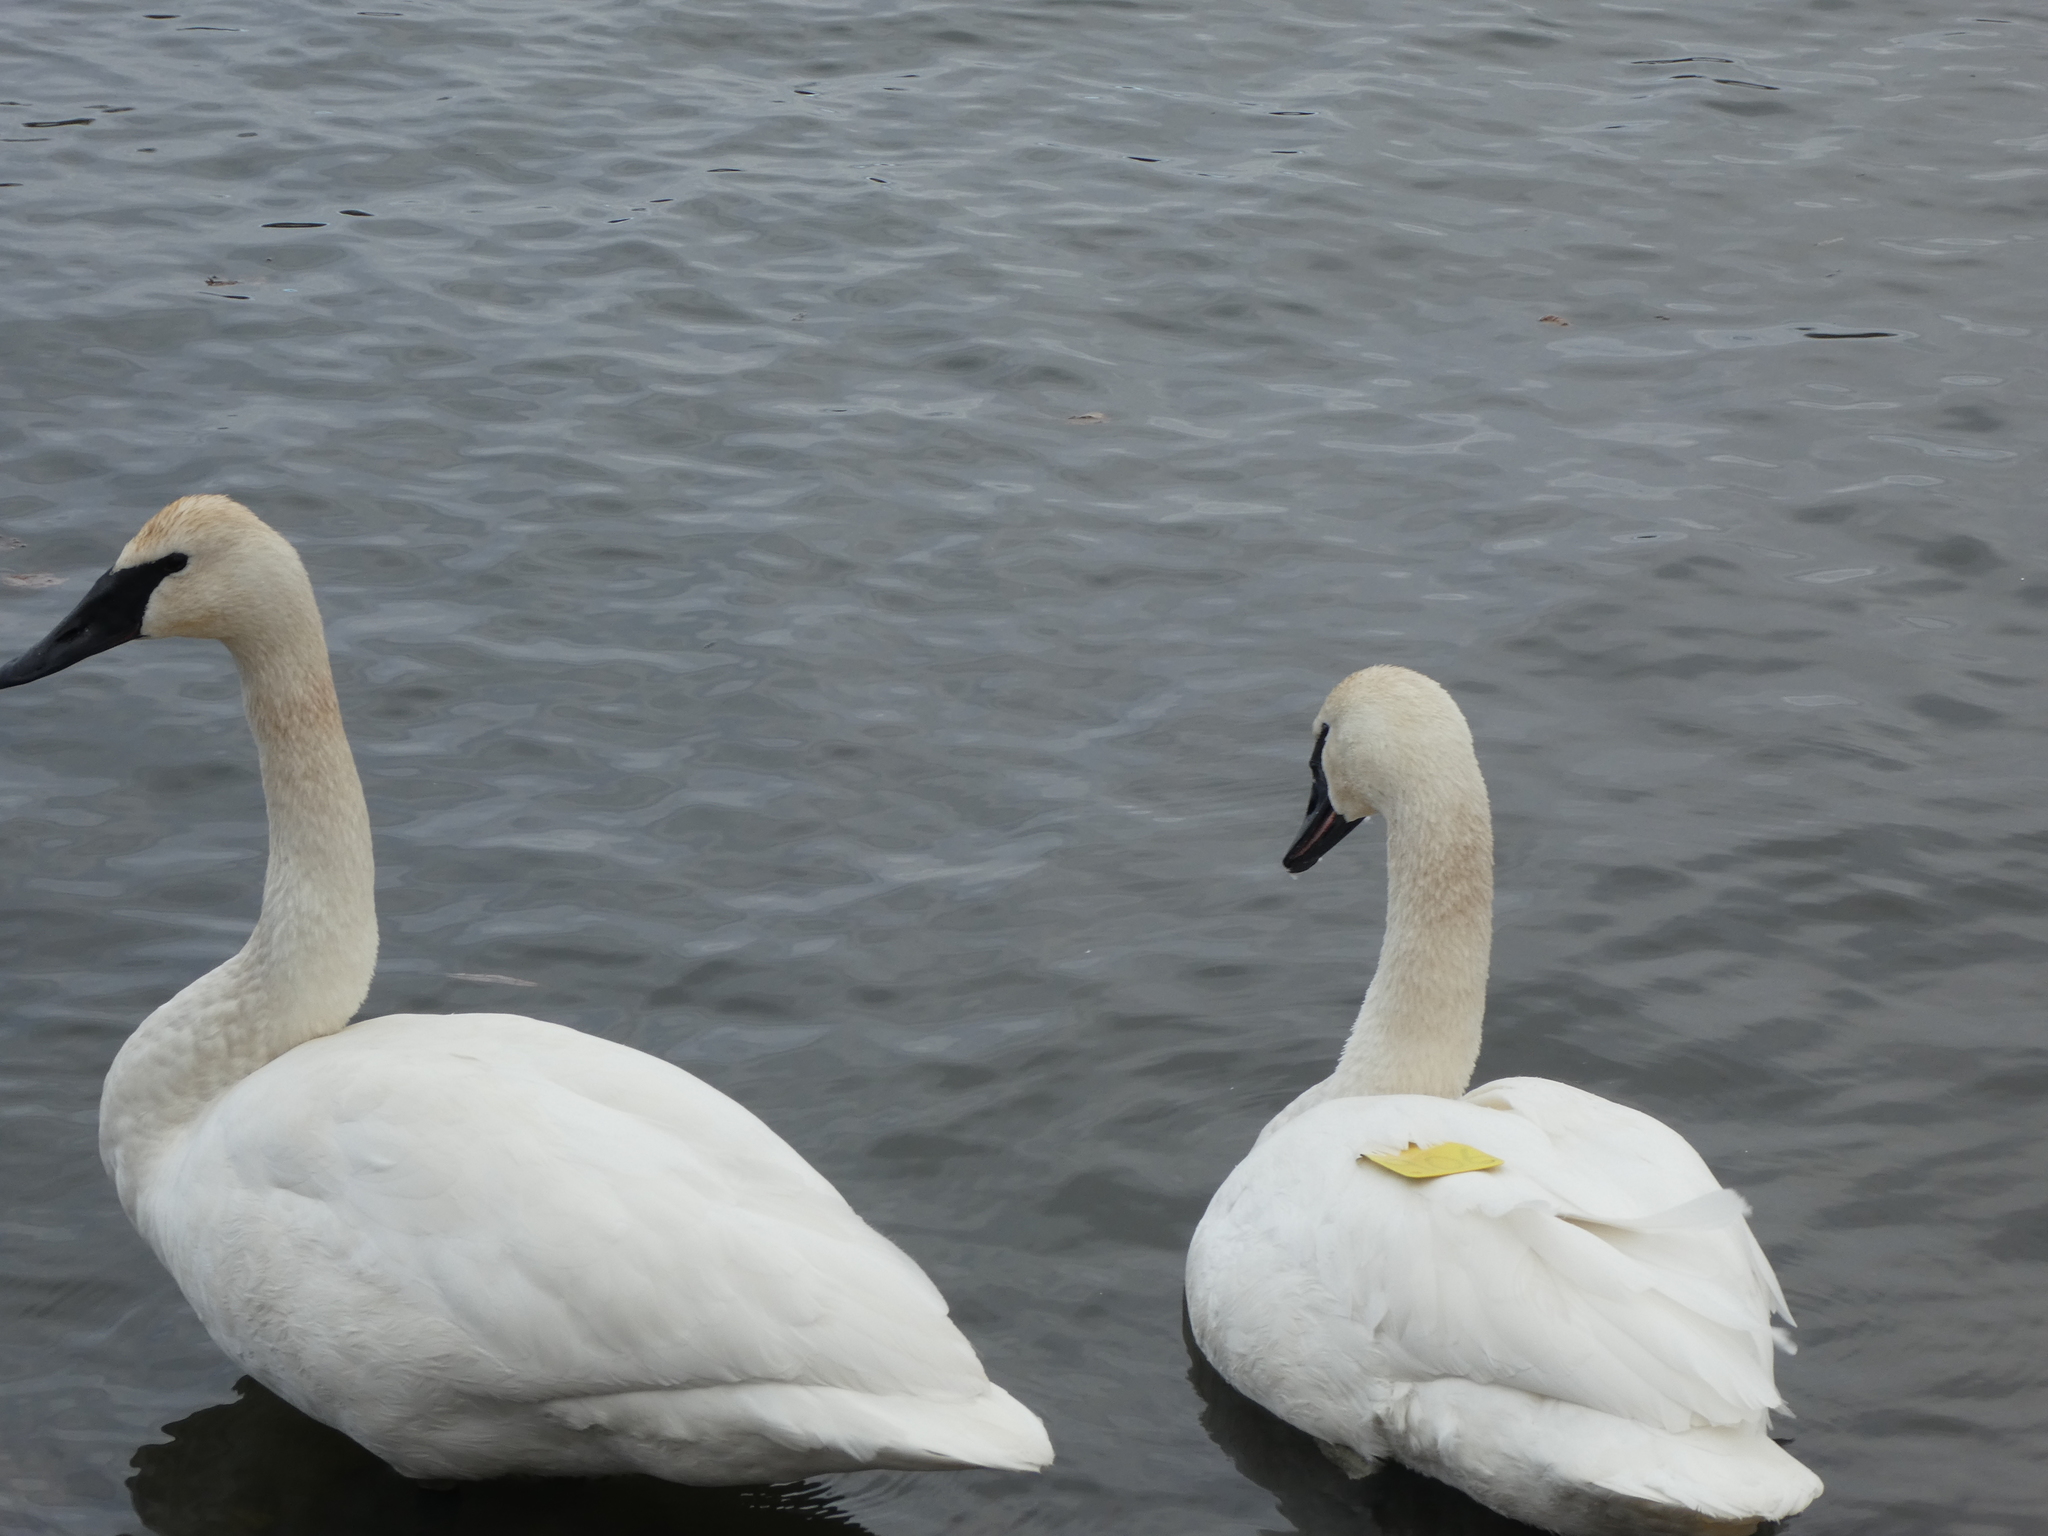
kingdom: Animalia
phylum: Chordata
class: Aves
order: Anseriformes
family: Anatidae
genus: Cygnus
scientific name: Cygnus buccinator
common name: Trumpeter swan
